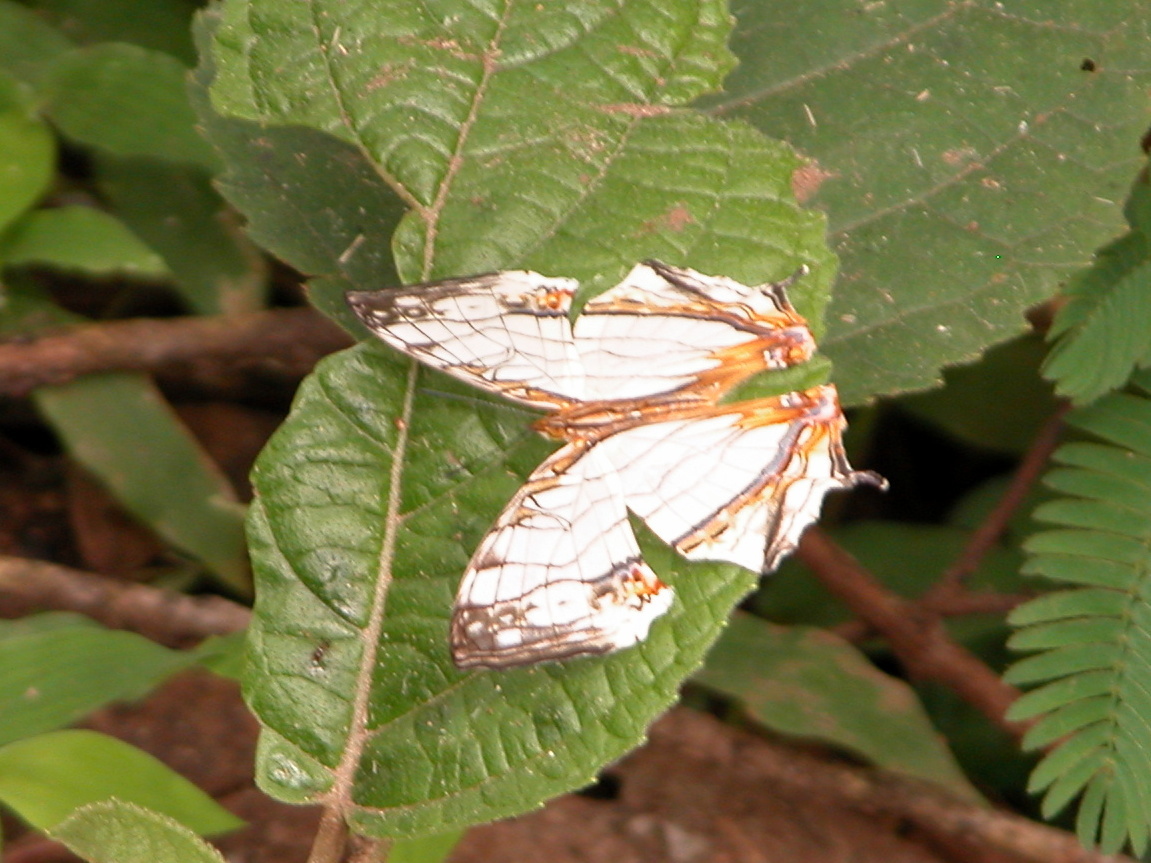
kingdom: Animalia
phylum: Arthropoda
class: Insecta
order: Lepidoptera
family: Nymphalidae
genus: Cyrestis
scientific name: Cyrestis thyodamas
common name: Common mapwing
